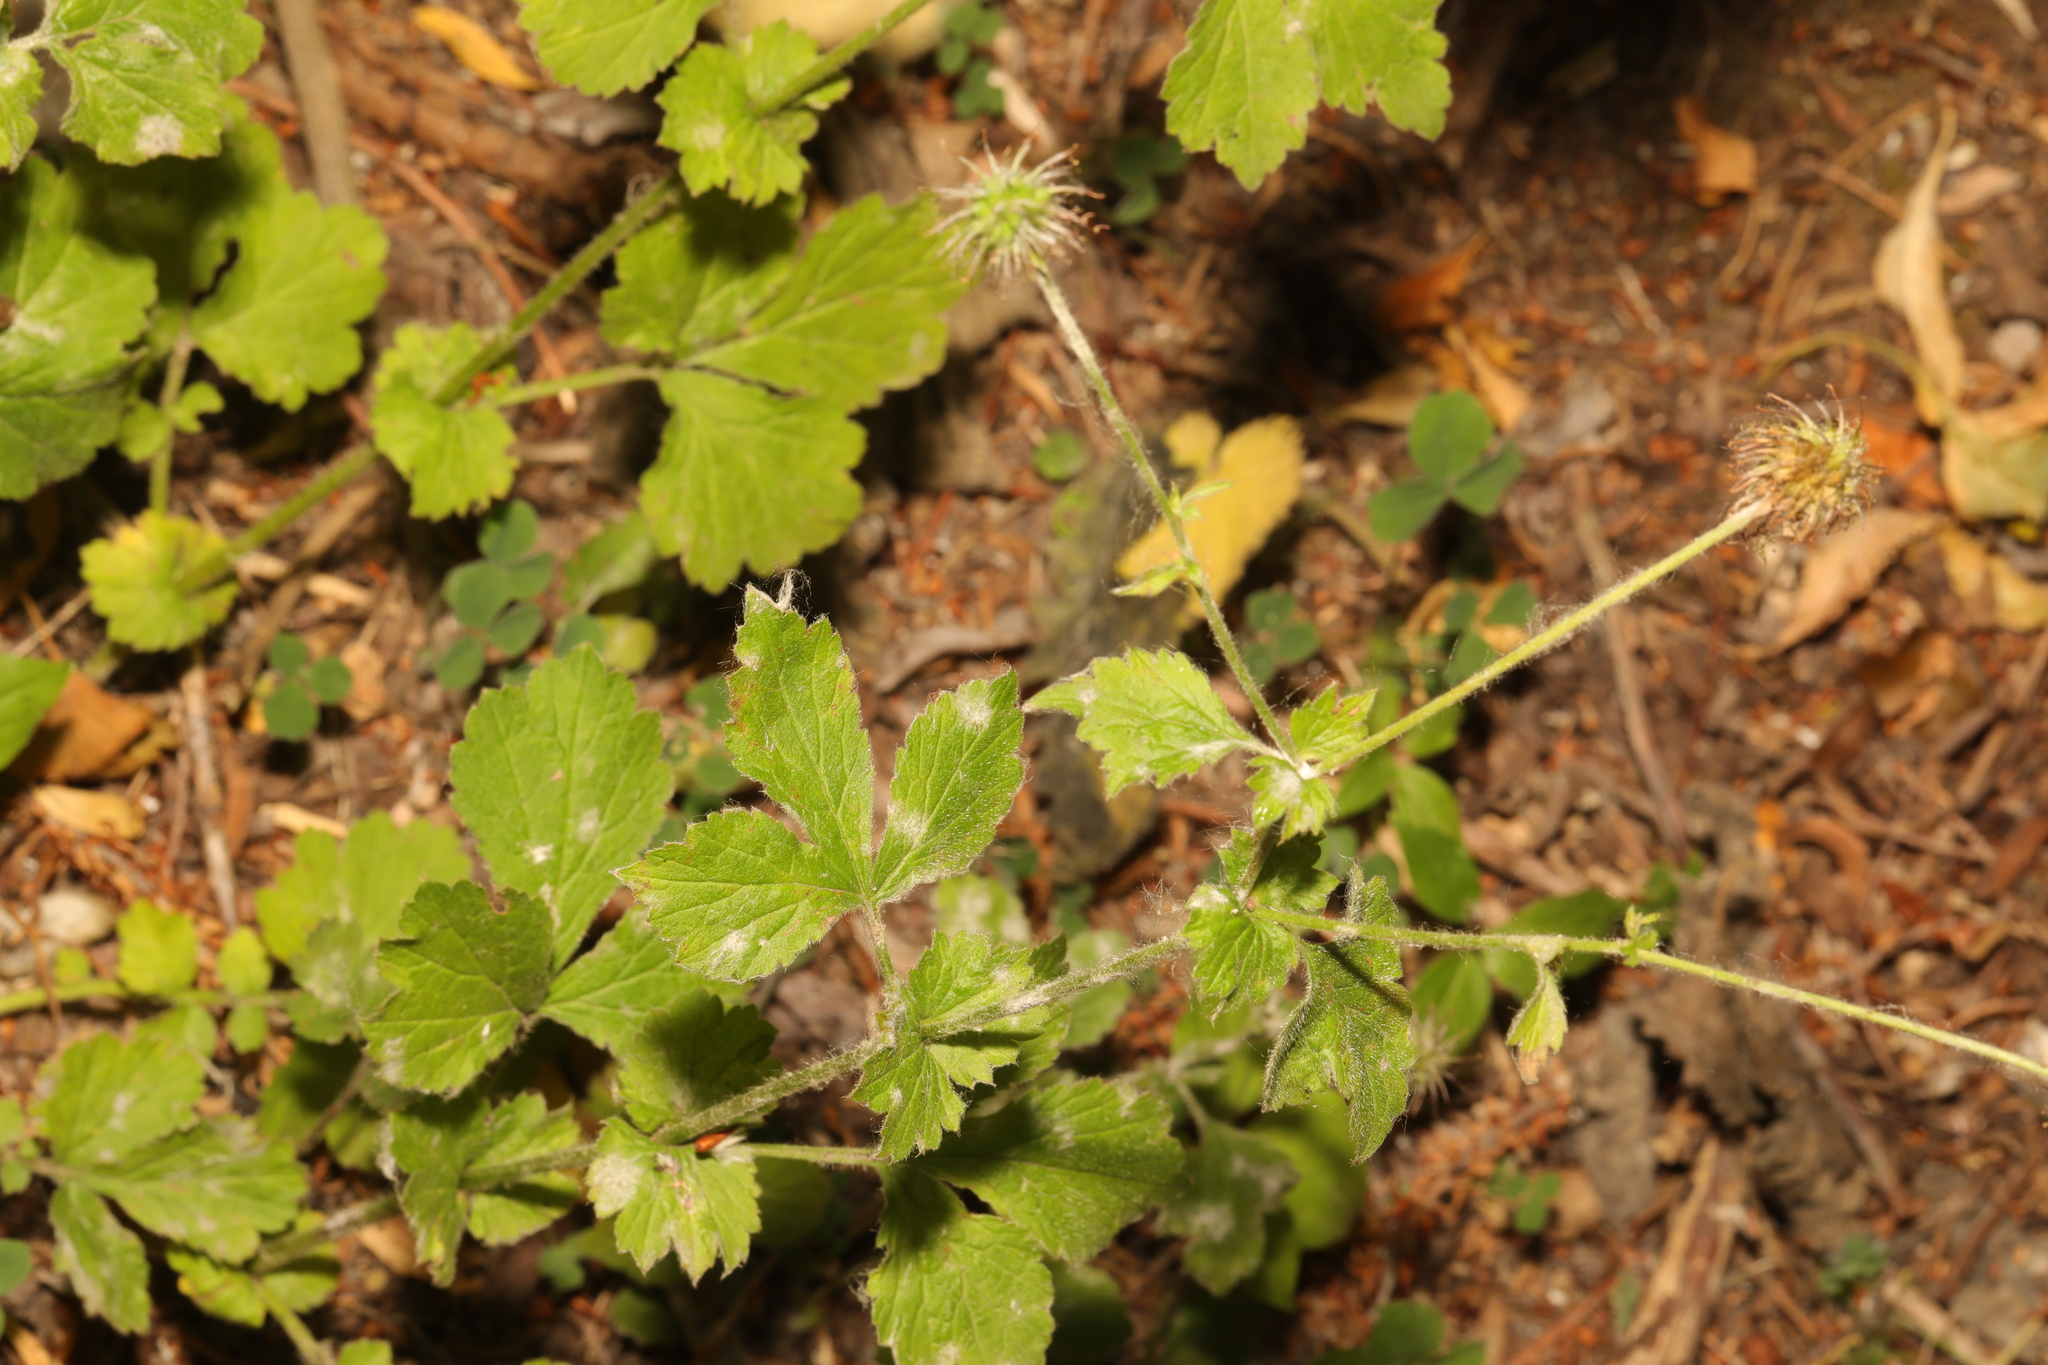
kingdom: Plantae
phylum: Tracheophyta
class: Magnoliopsida
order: Rosales
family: Rosaceae
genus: Geum
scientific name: Geum urbanum
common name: Wood avens
